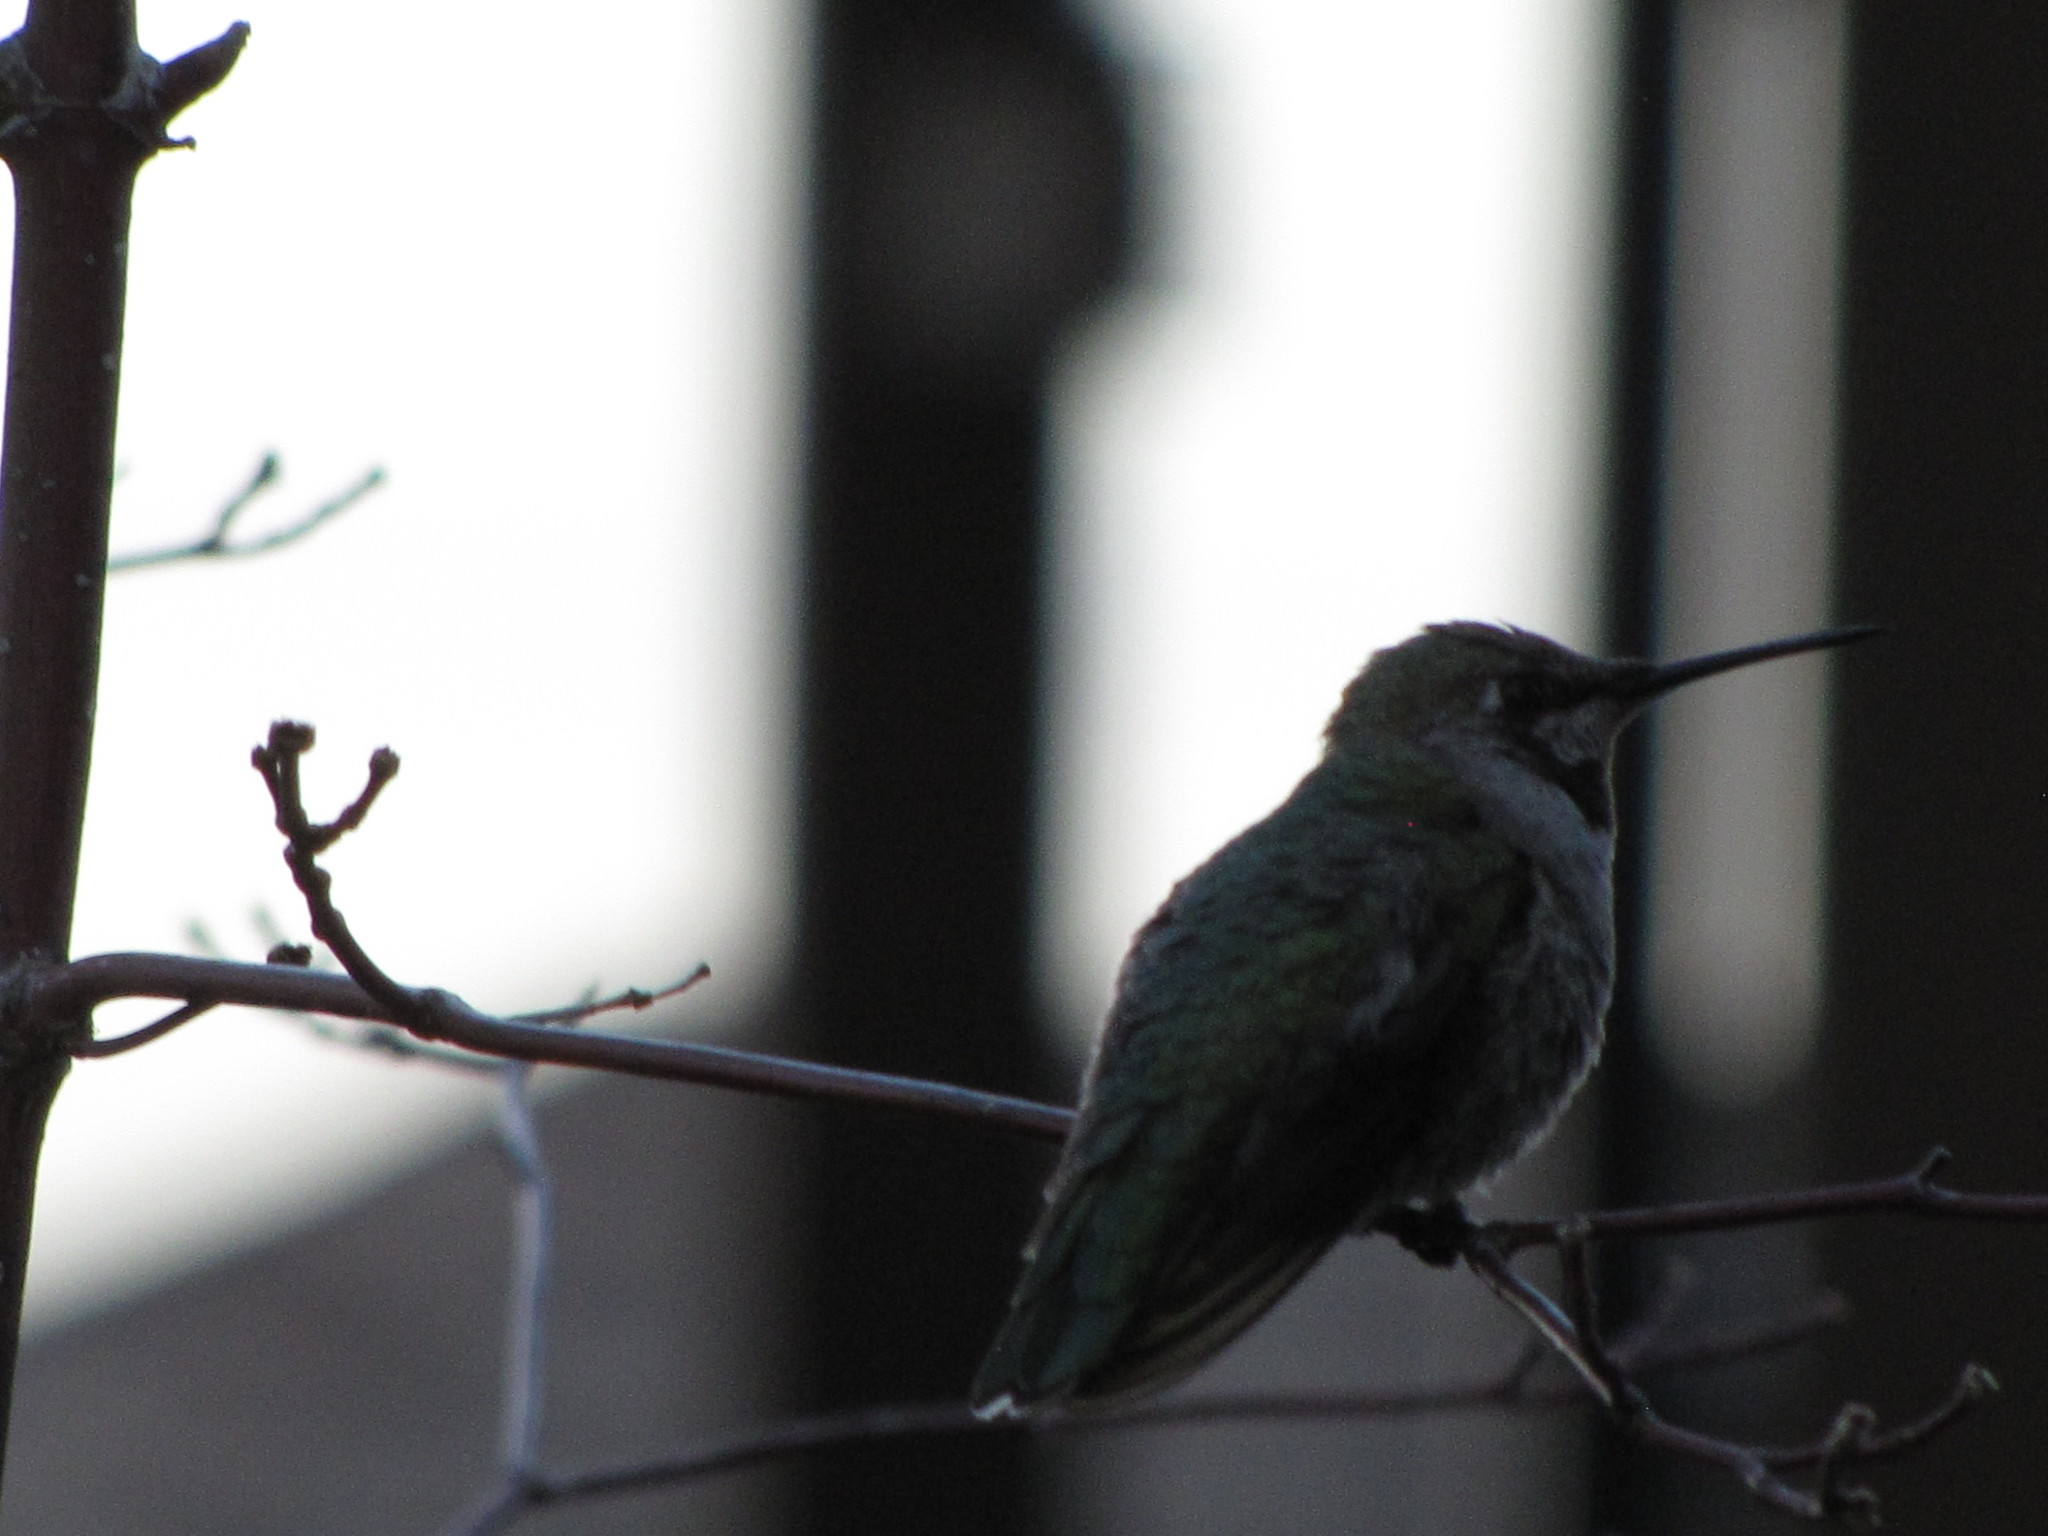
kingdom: Animalia
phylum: Chordata
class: Aves
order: Apodiformes
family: Trochilidae
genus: Calypte
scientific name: Calypte anna
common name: Anna's hummingbird
